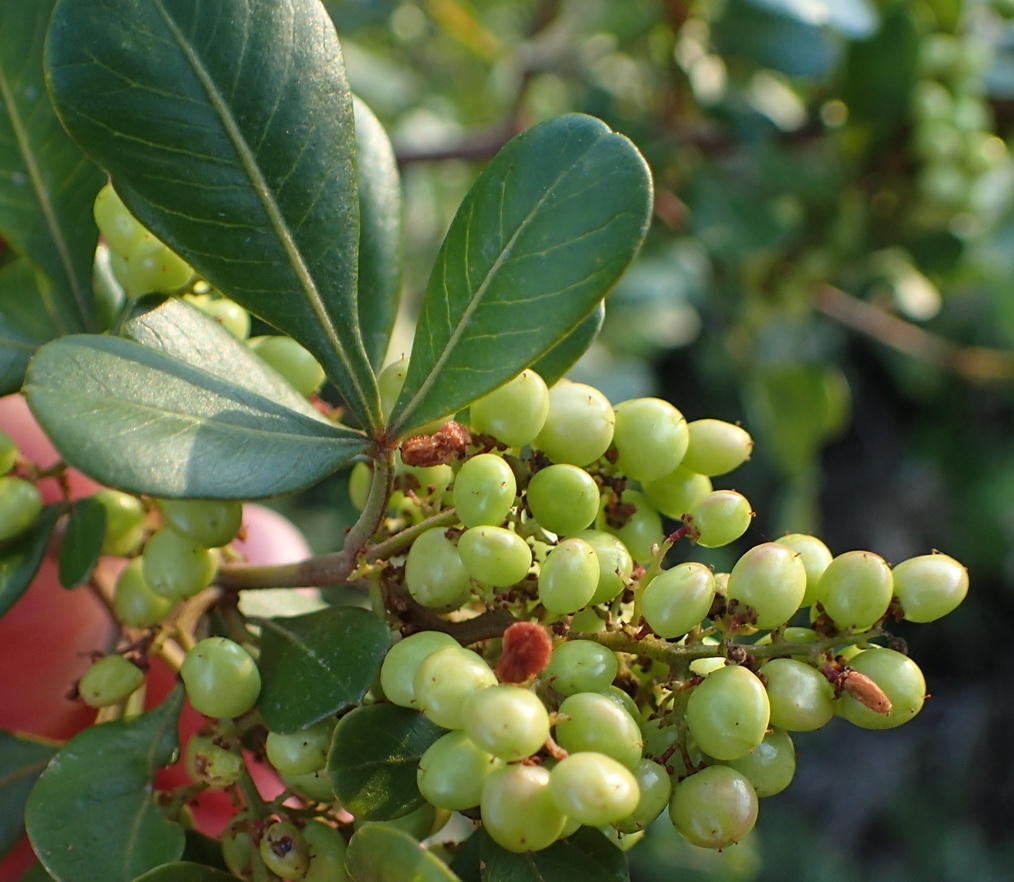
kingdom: Plantae
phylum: Tracheophyta
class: Magnoliopsida
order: Sapindales
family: Anacardiaceae
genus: Searsia
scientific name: Searsia glauca
